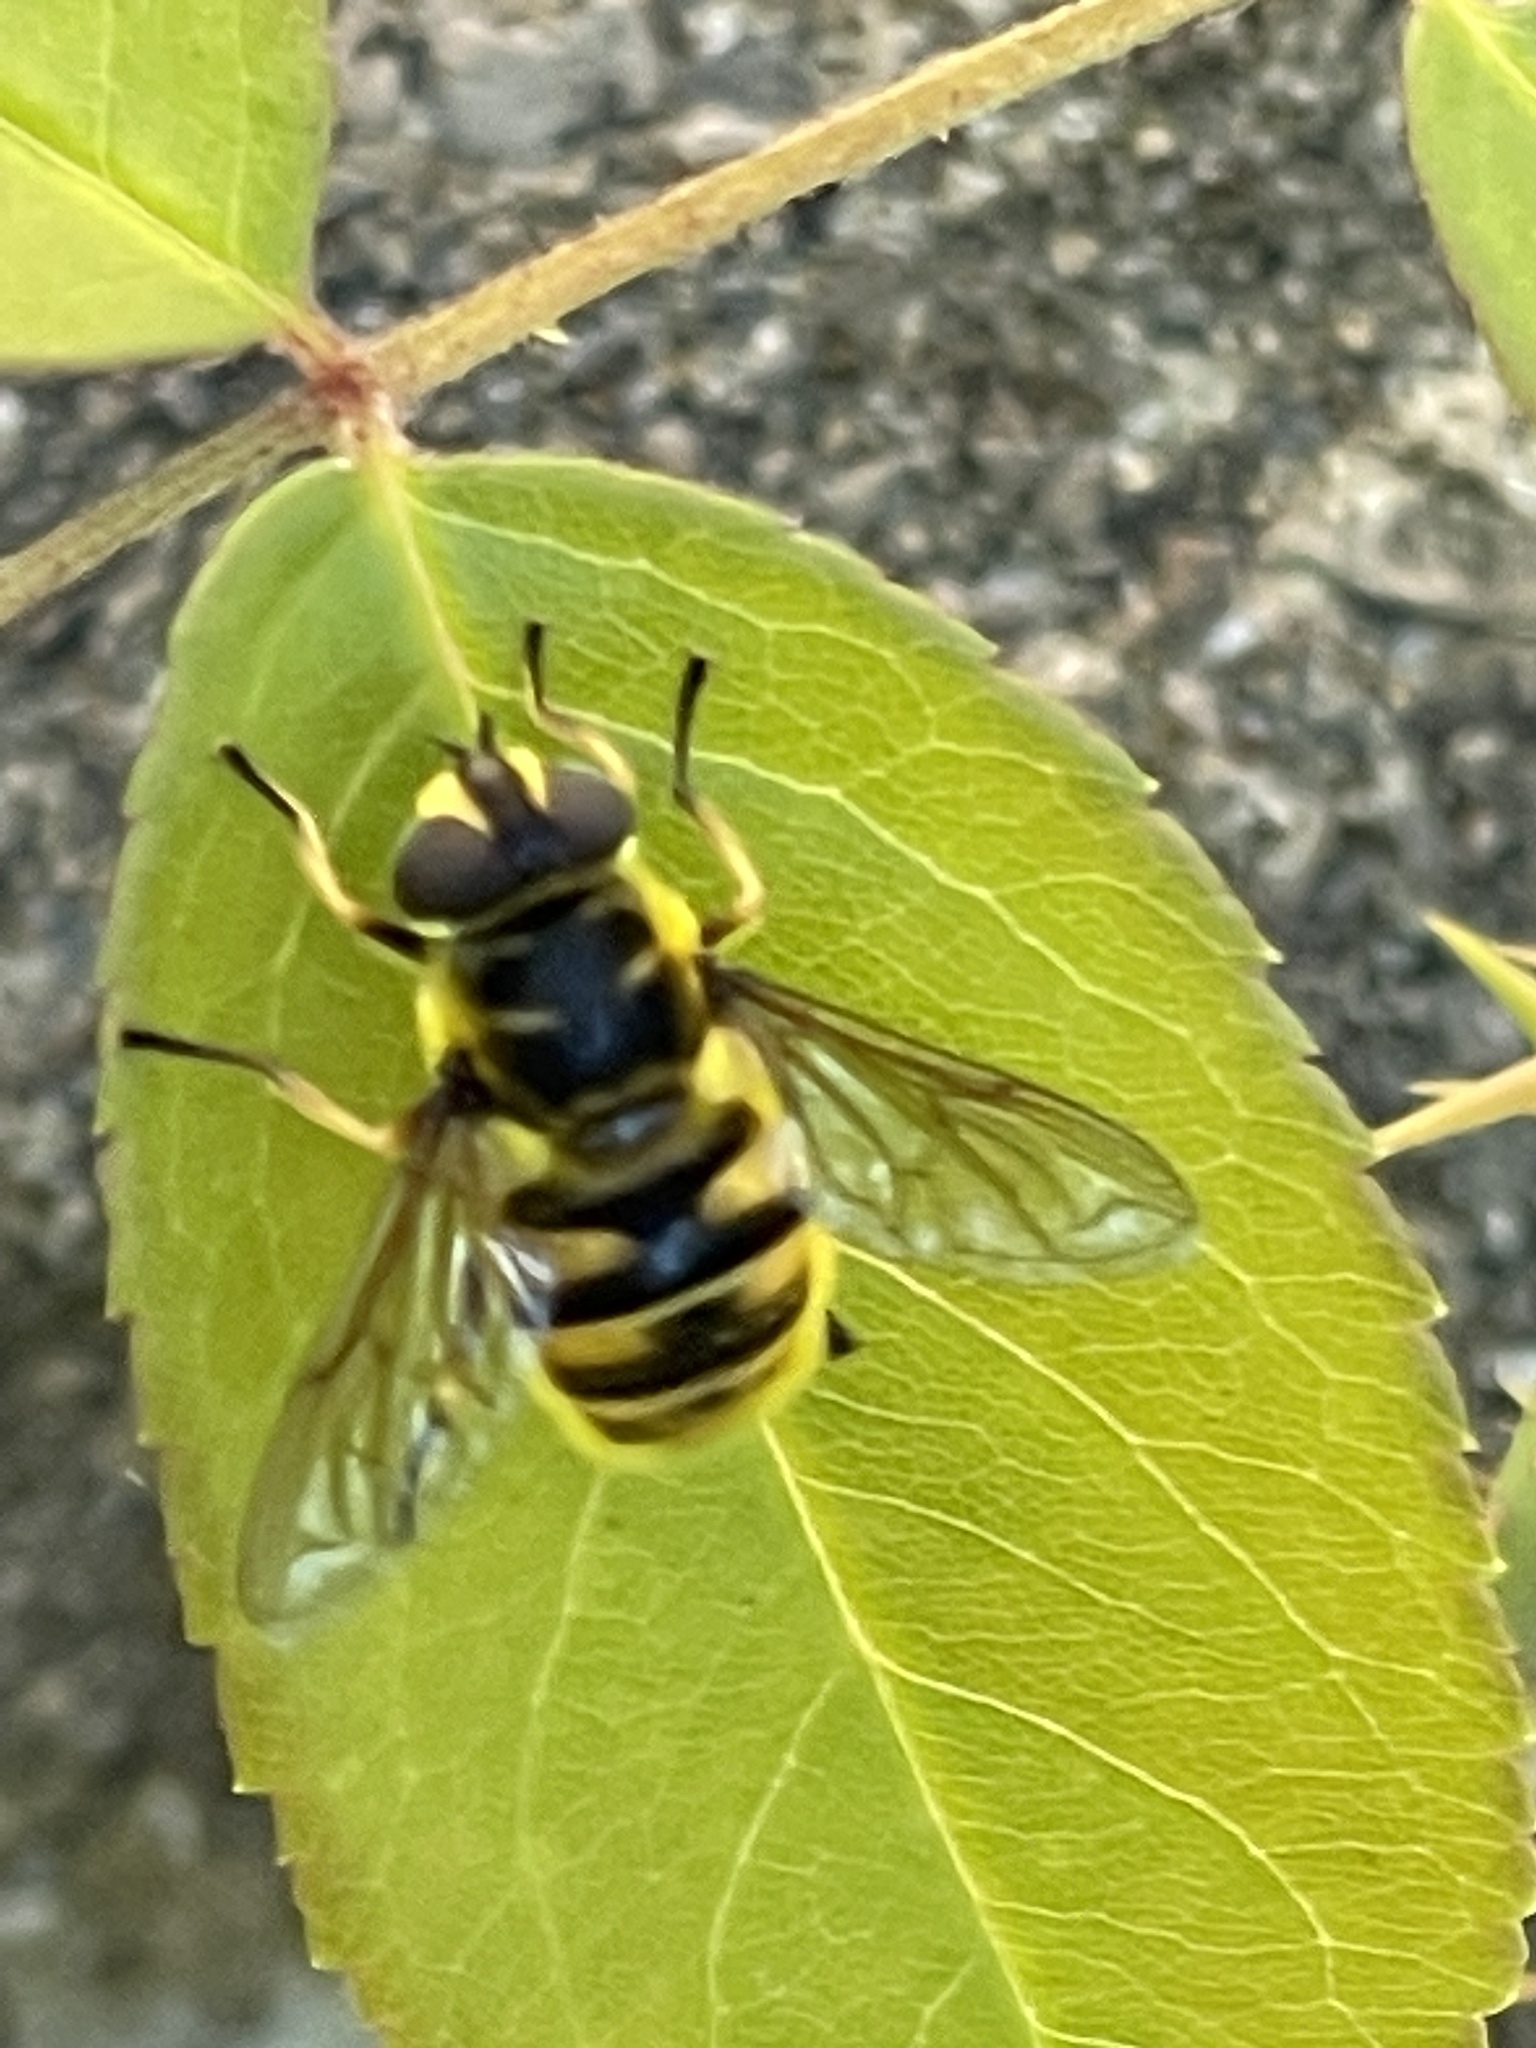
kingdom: Animalia
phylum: Arthropoda
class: Insecta
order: Diptera
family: Syrphidae
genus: Myathropa
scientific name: Myathropa florea
